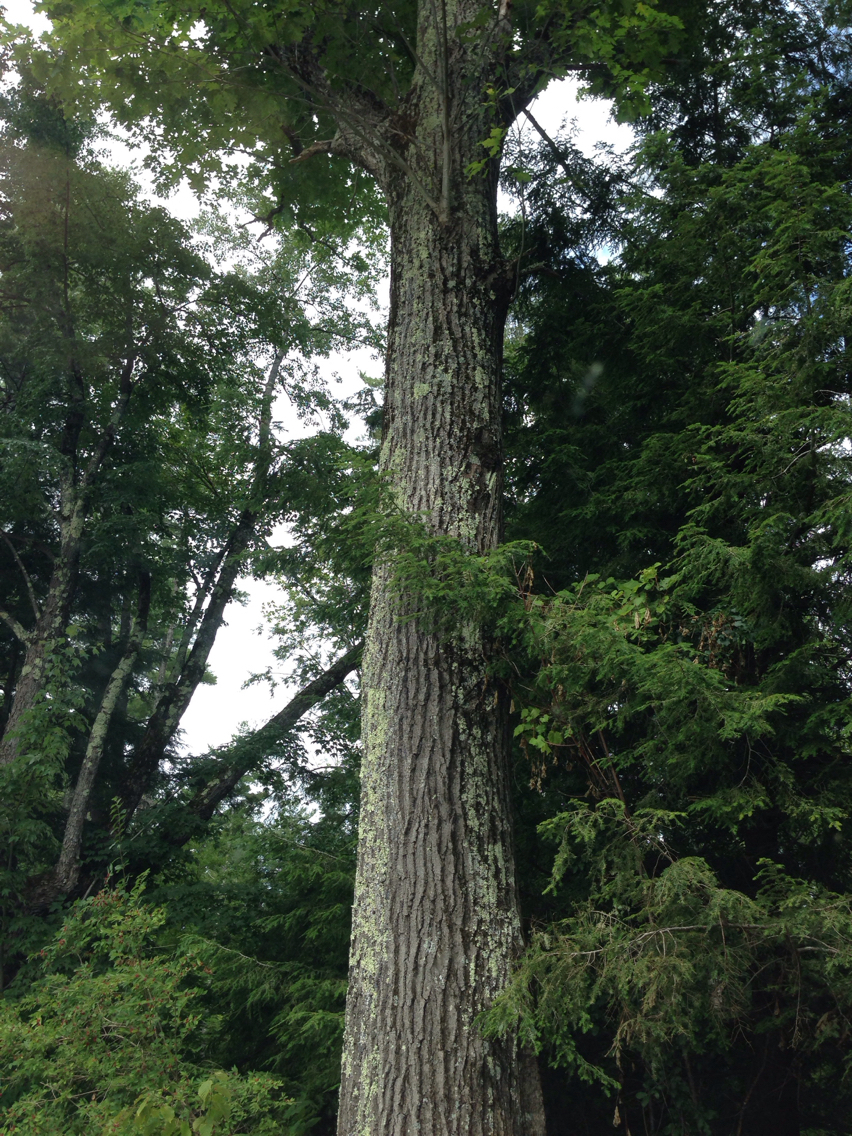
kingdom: Plantae
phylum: Tracheophyta
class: Magnoliopsida
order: Fagales
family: Fagaceae
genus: Quercus
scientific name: Quercus rubra
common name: Red oak
